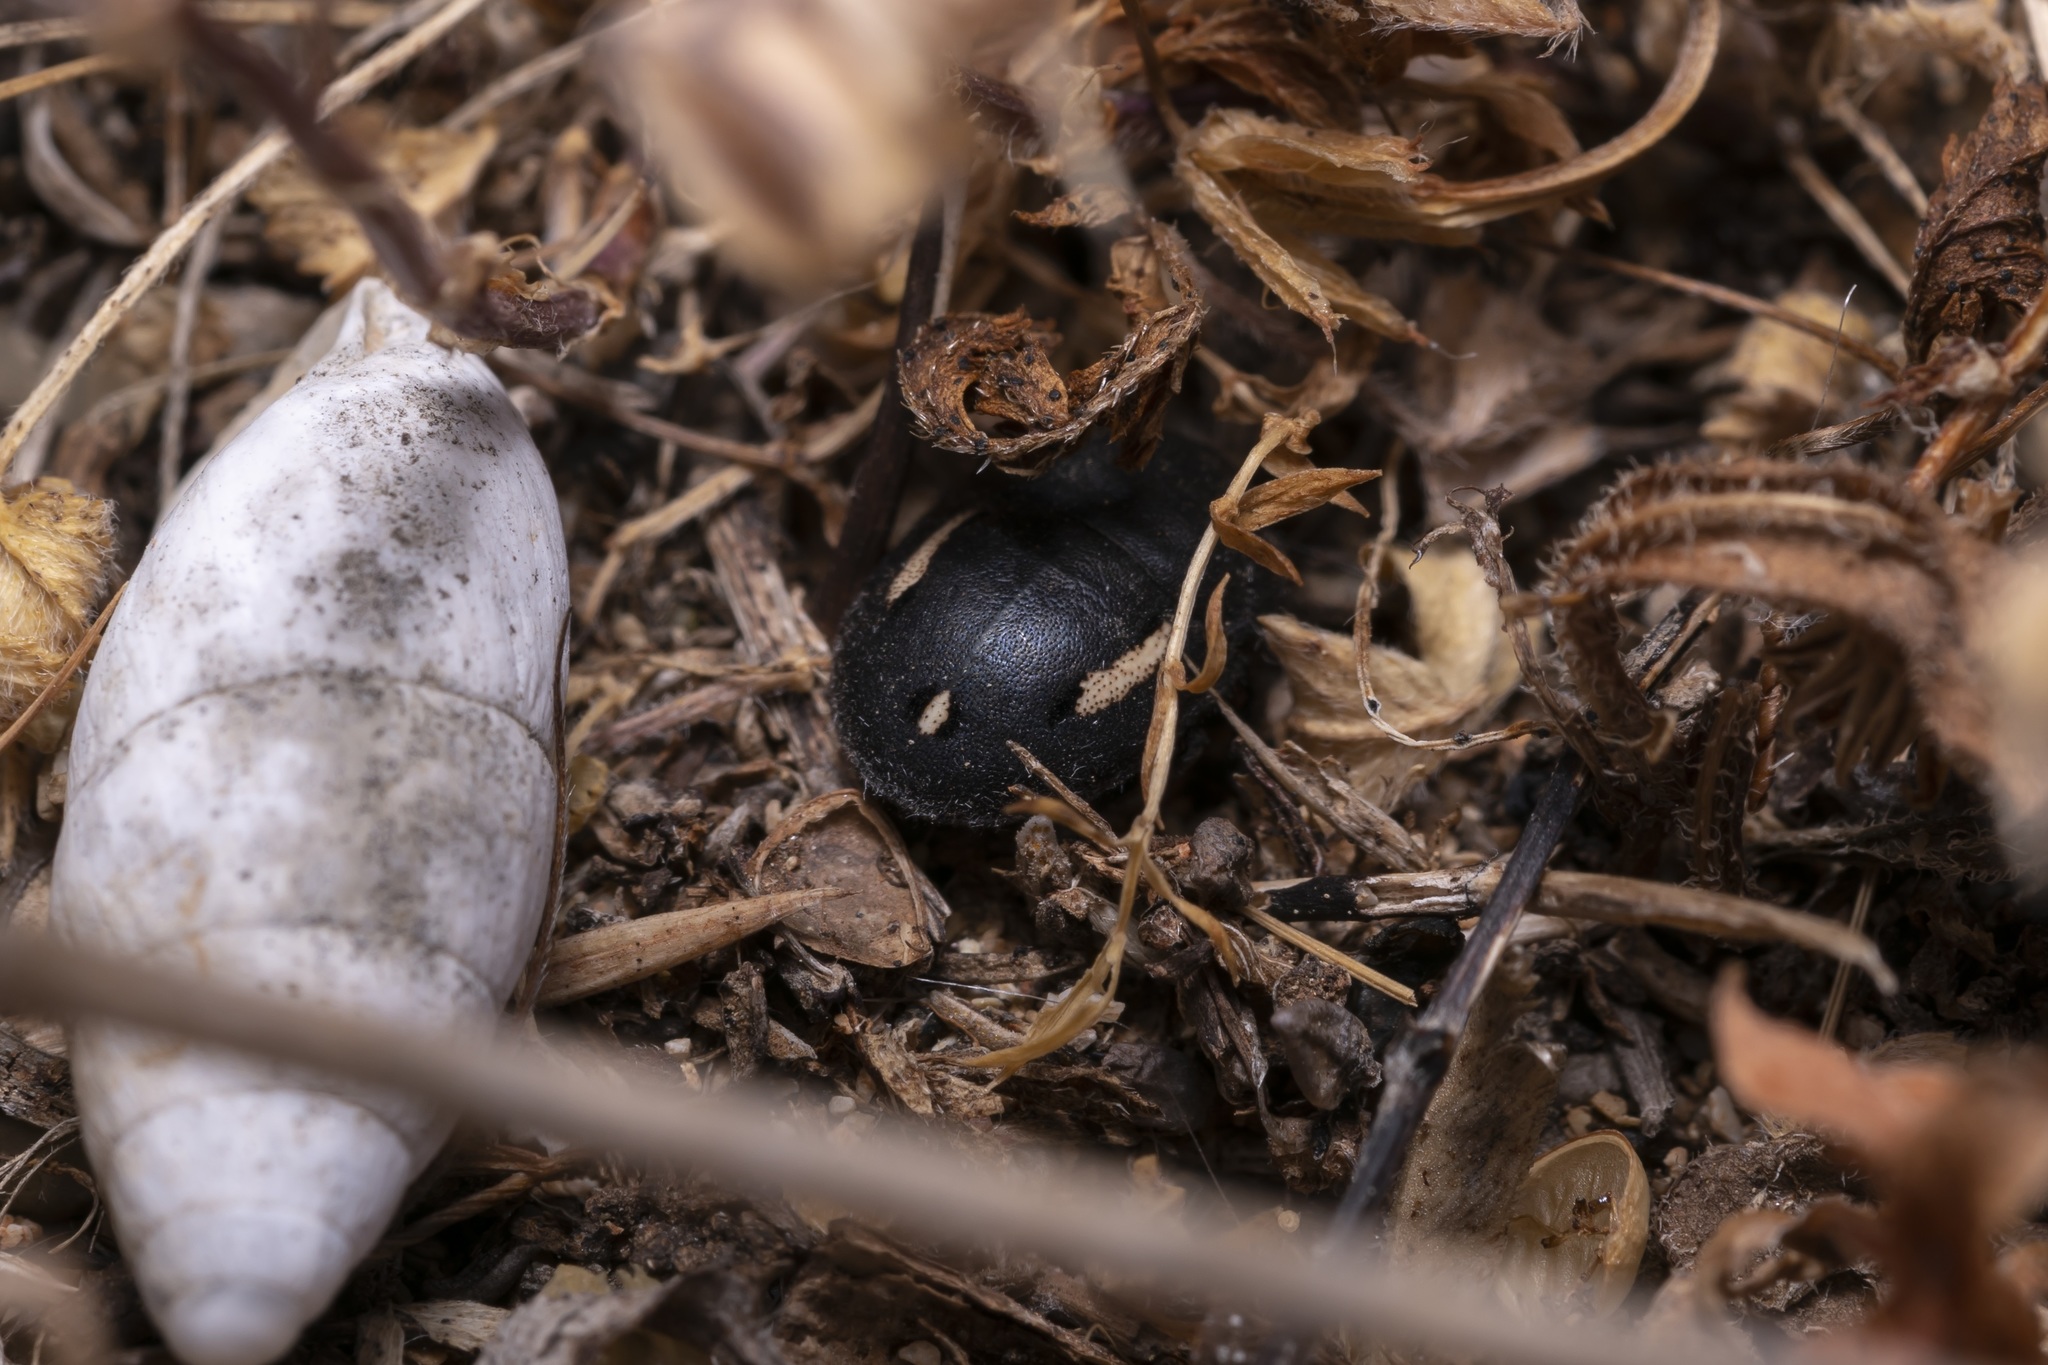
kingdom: Animalia
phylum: Arthropoda
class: Insecta
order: Hemiptera
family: Scutelleridae
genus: Odontoscelis
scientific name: Odontoscelis
